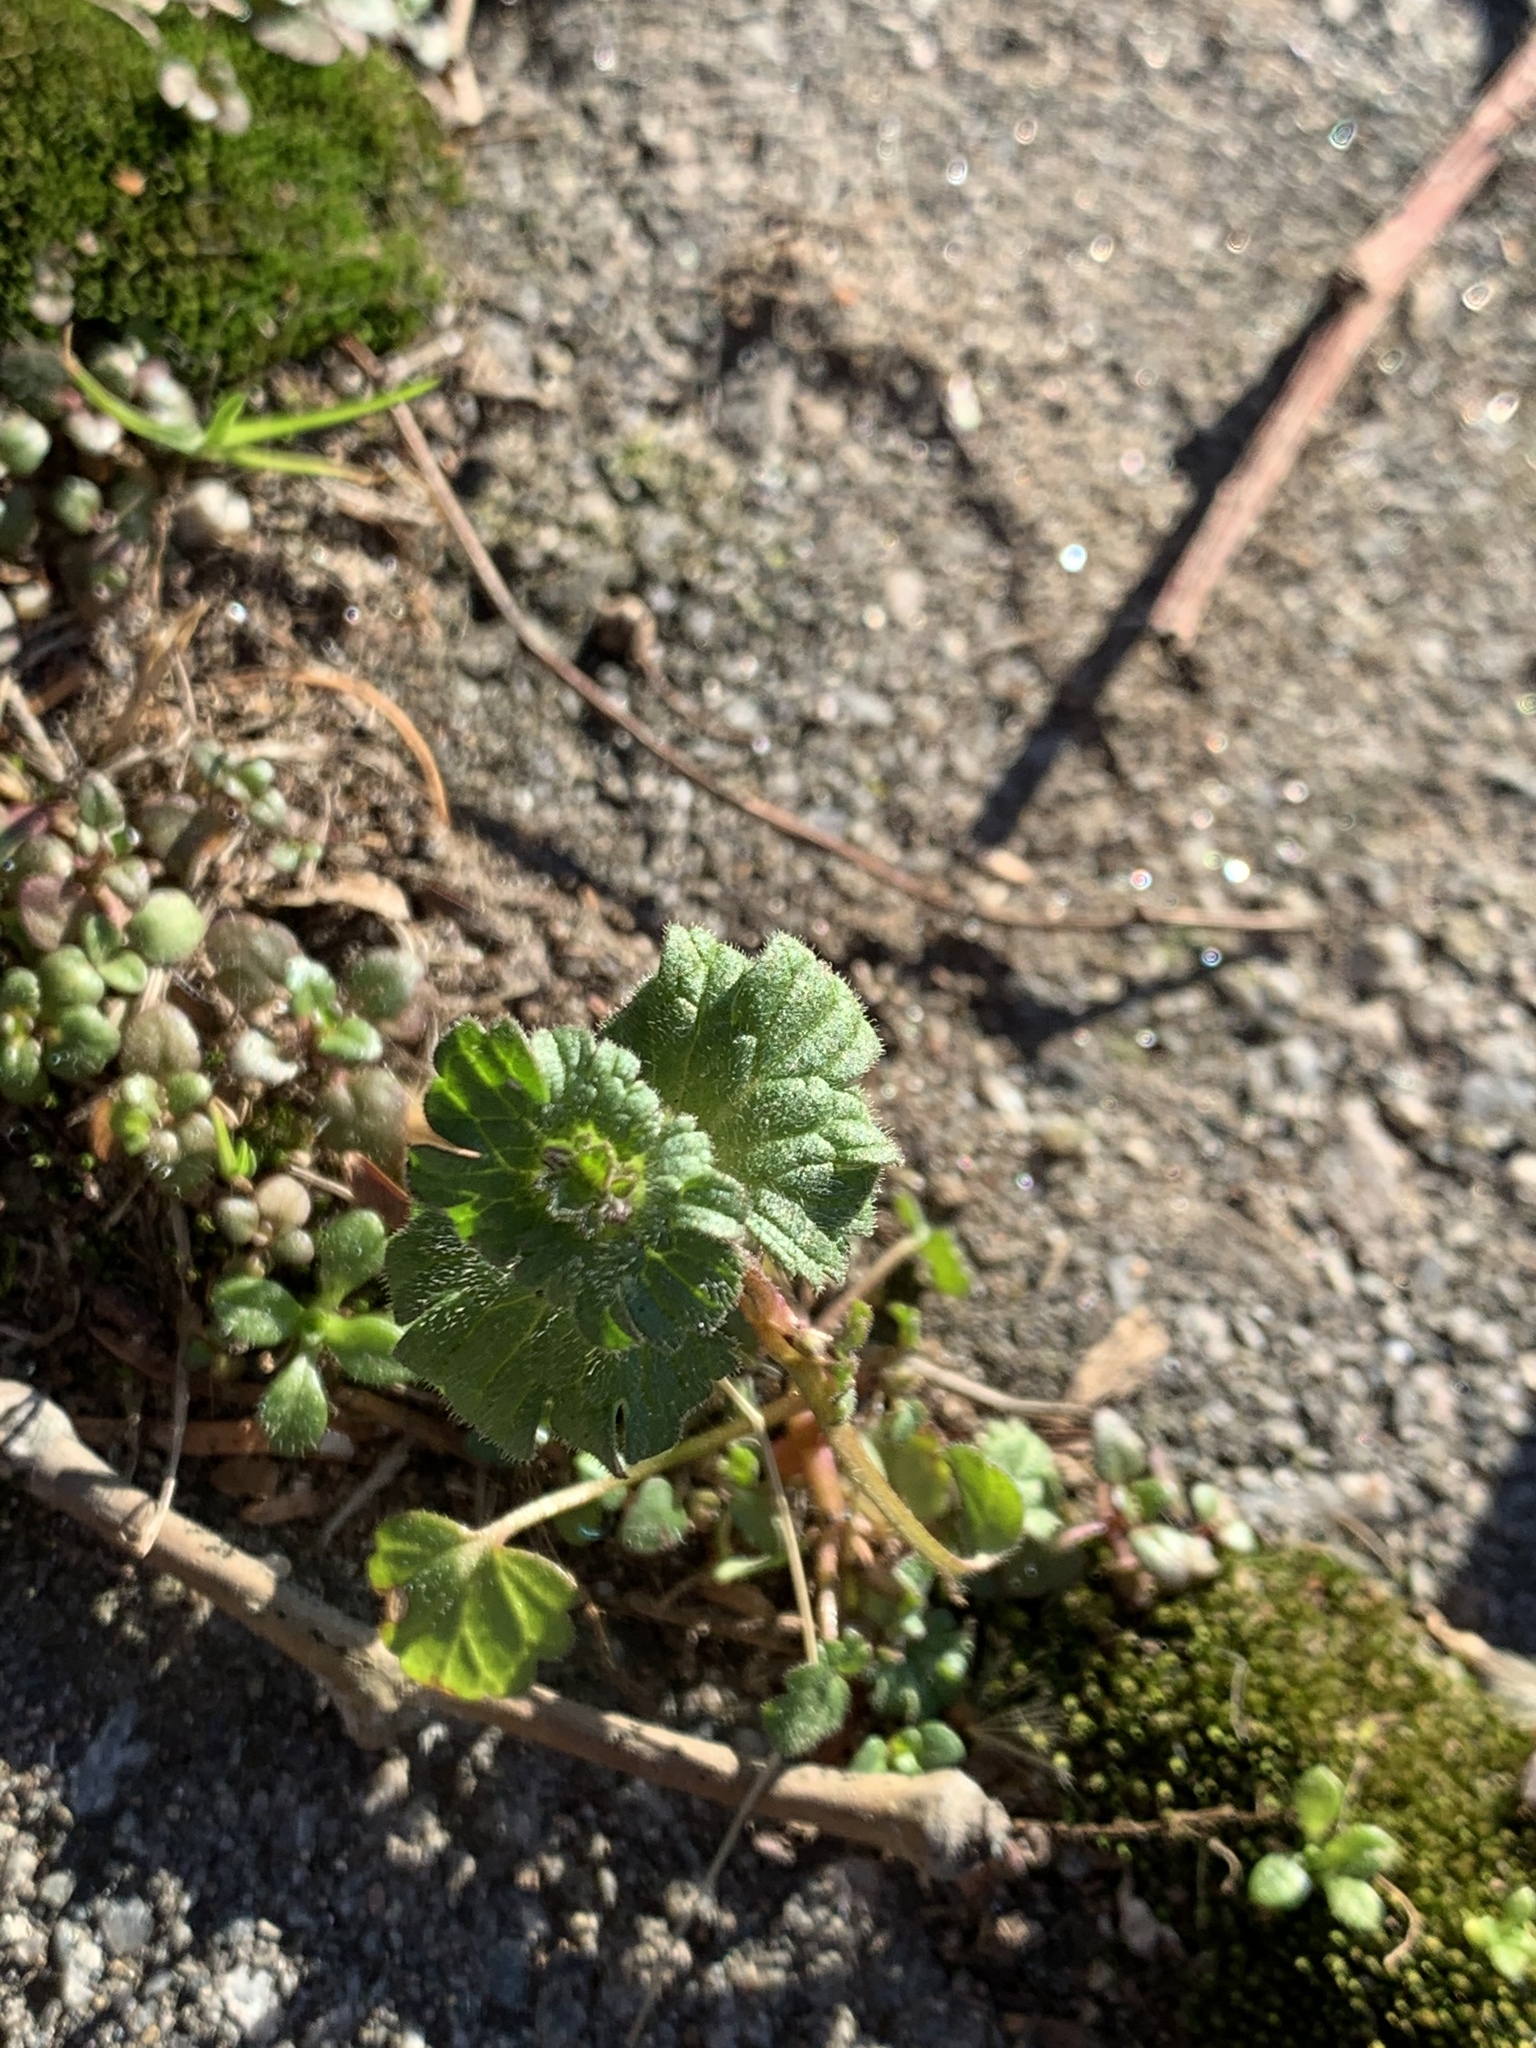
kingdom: Plantae
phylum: Tracheophyta
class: Magnoliopsida
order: Lamiales
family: Lamiaceae
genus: Lamium
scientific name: Lamium amplexicaule
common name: Henbit dead-nettle
